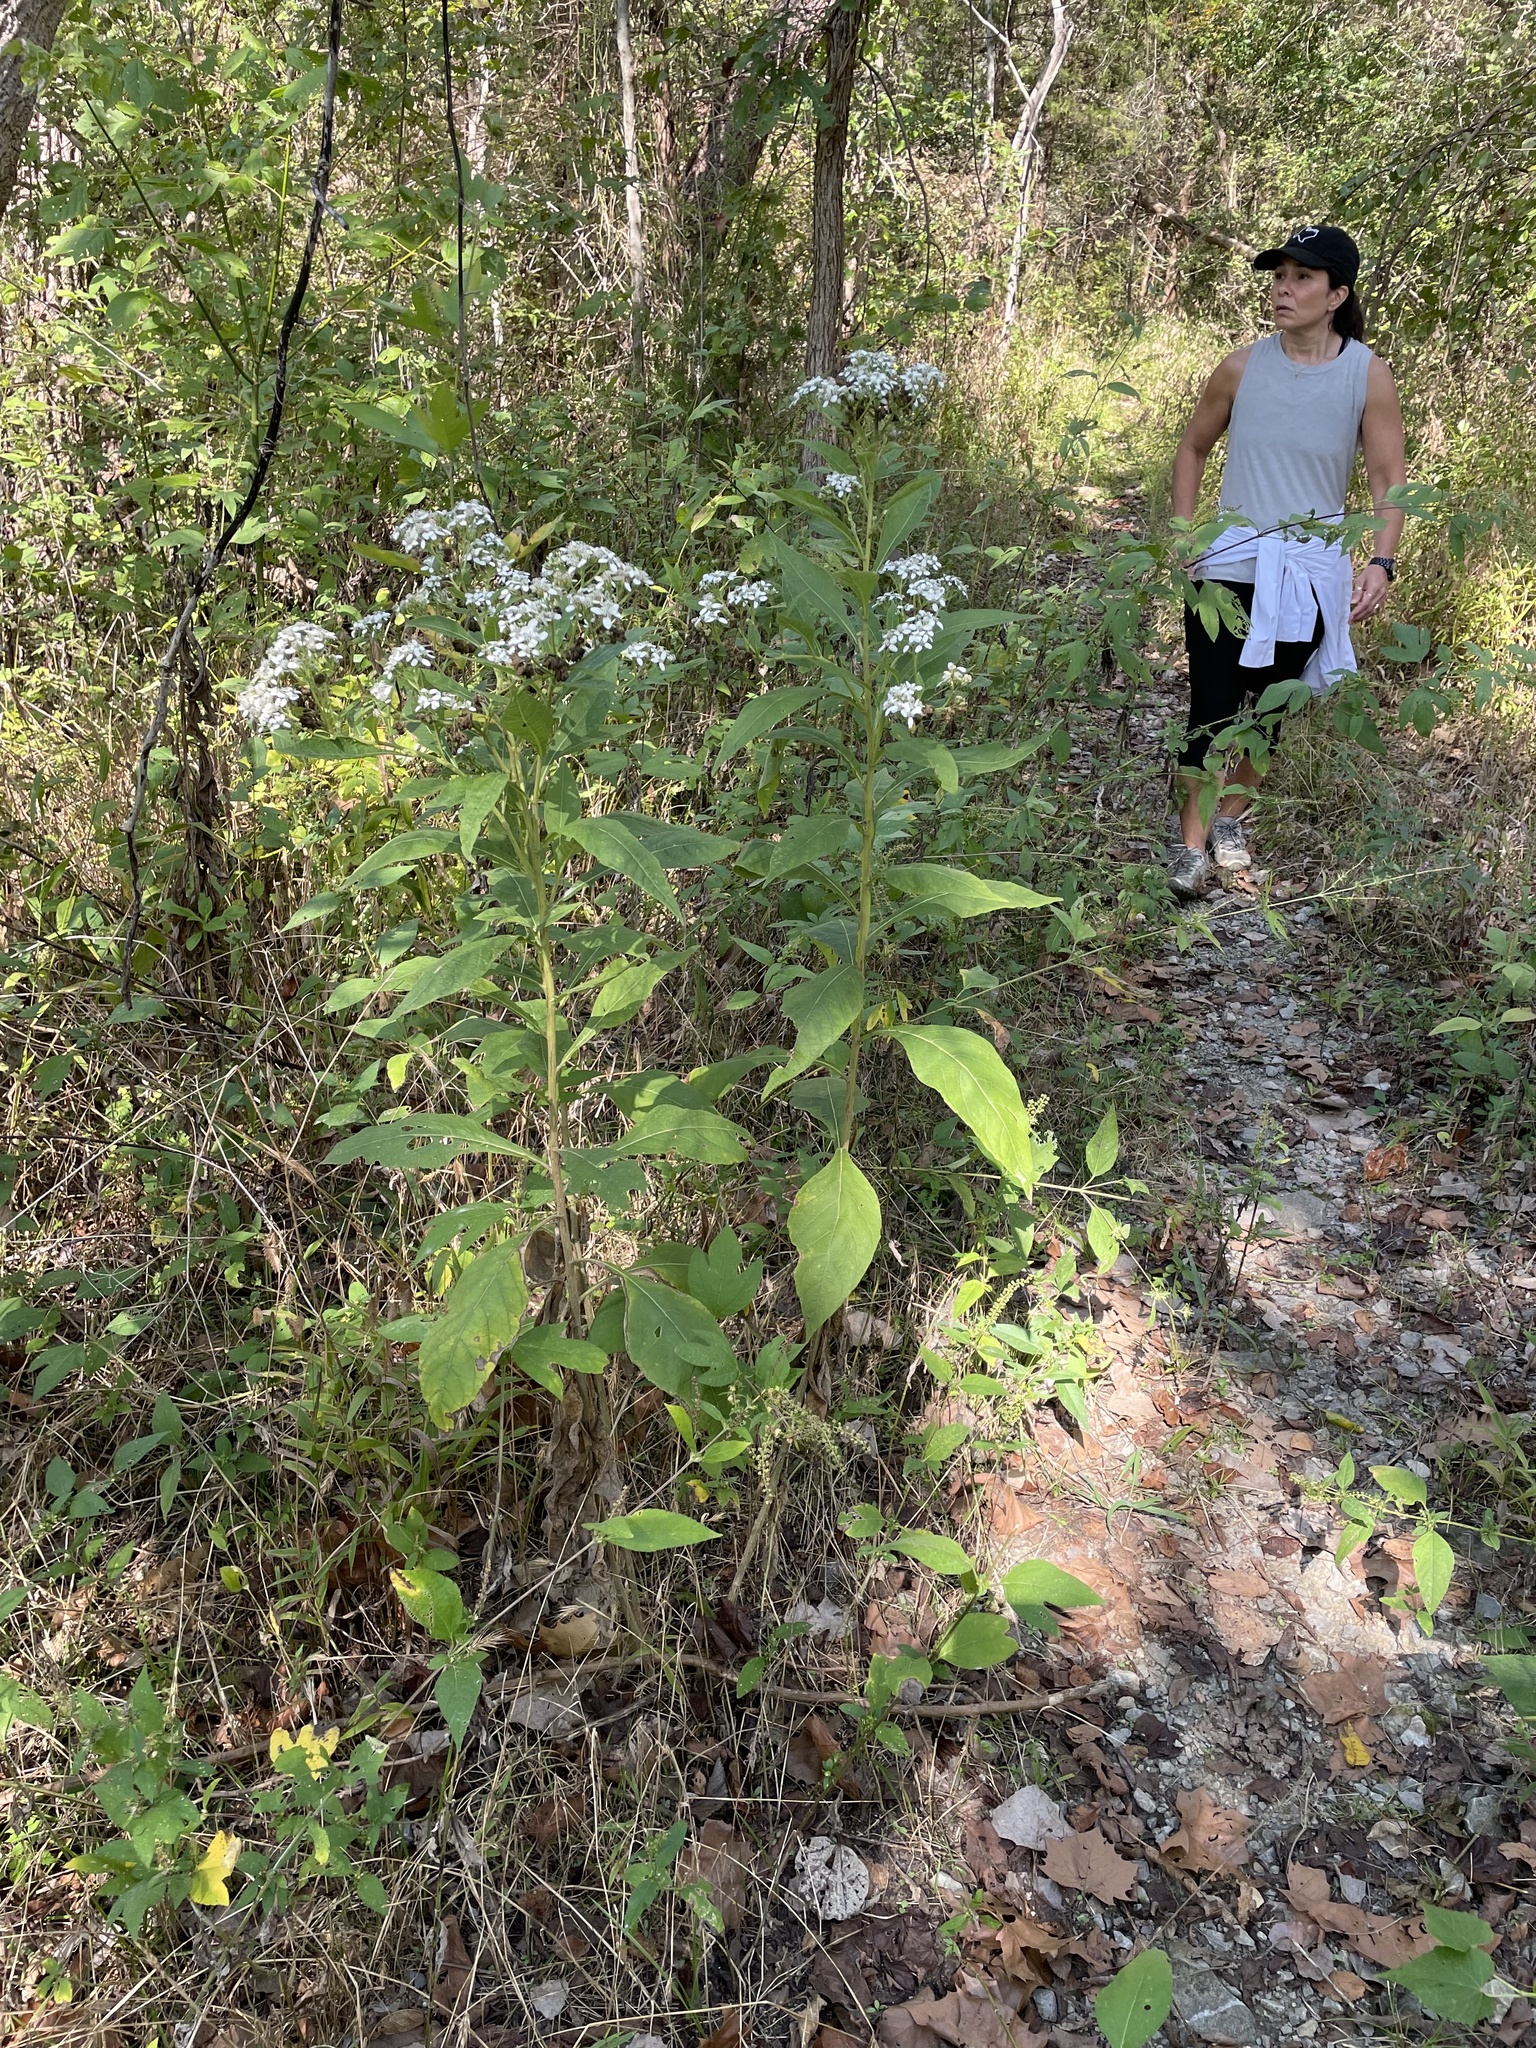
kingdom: Plantae
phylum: Tracheophyta
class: Magnoliopsida
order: Asterales
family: Asteraceae
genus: Verbesina
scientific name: Verbesina virginica
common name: Frostweed
